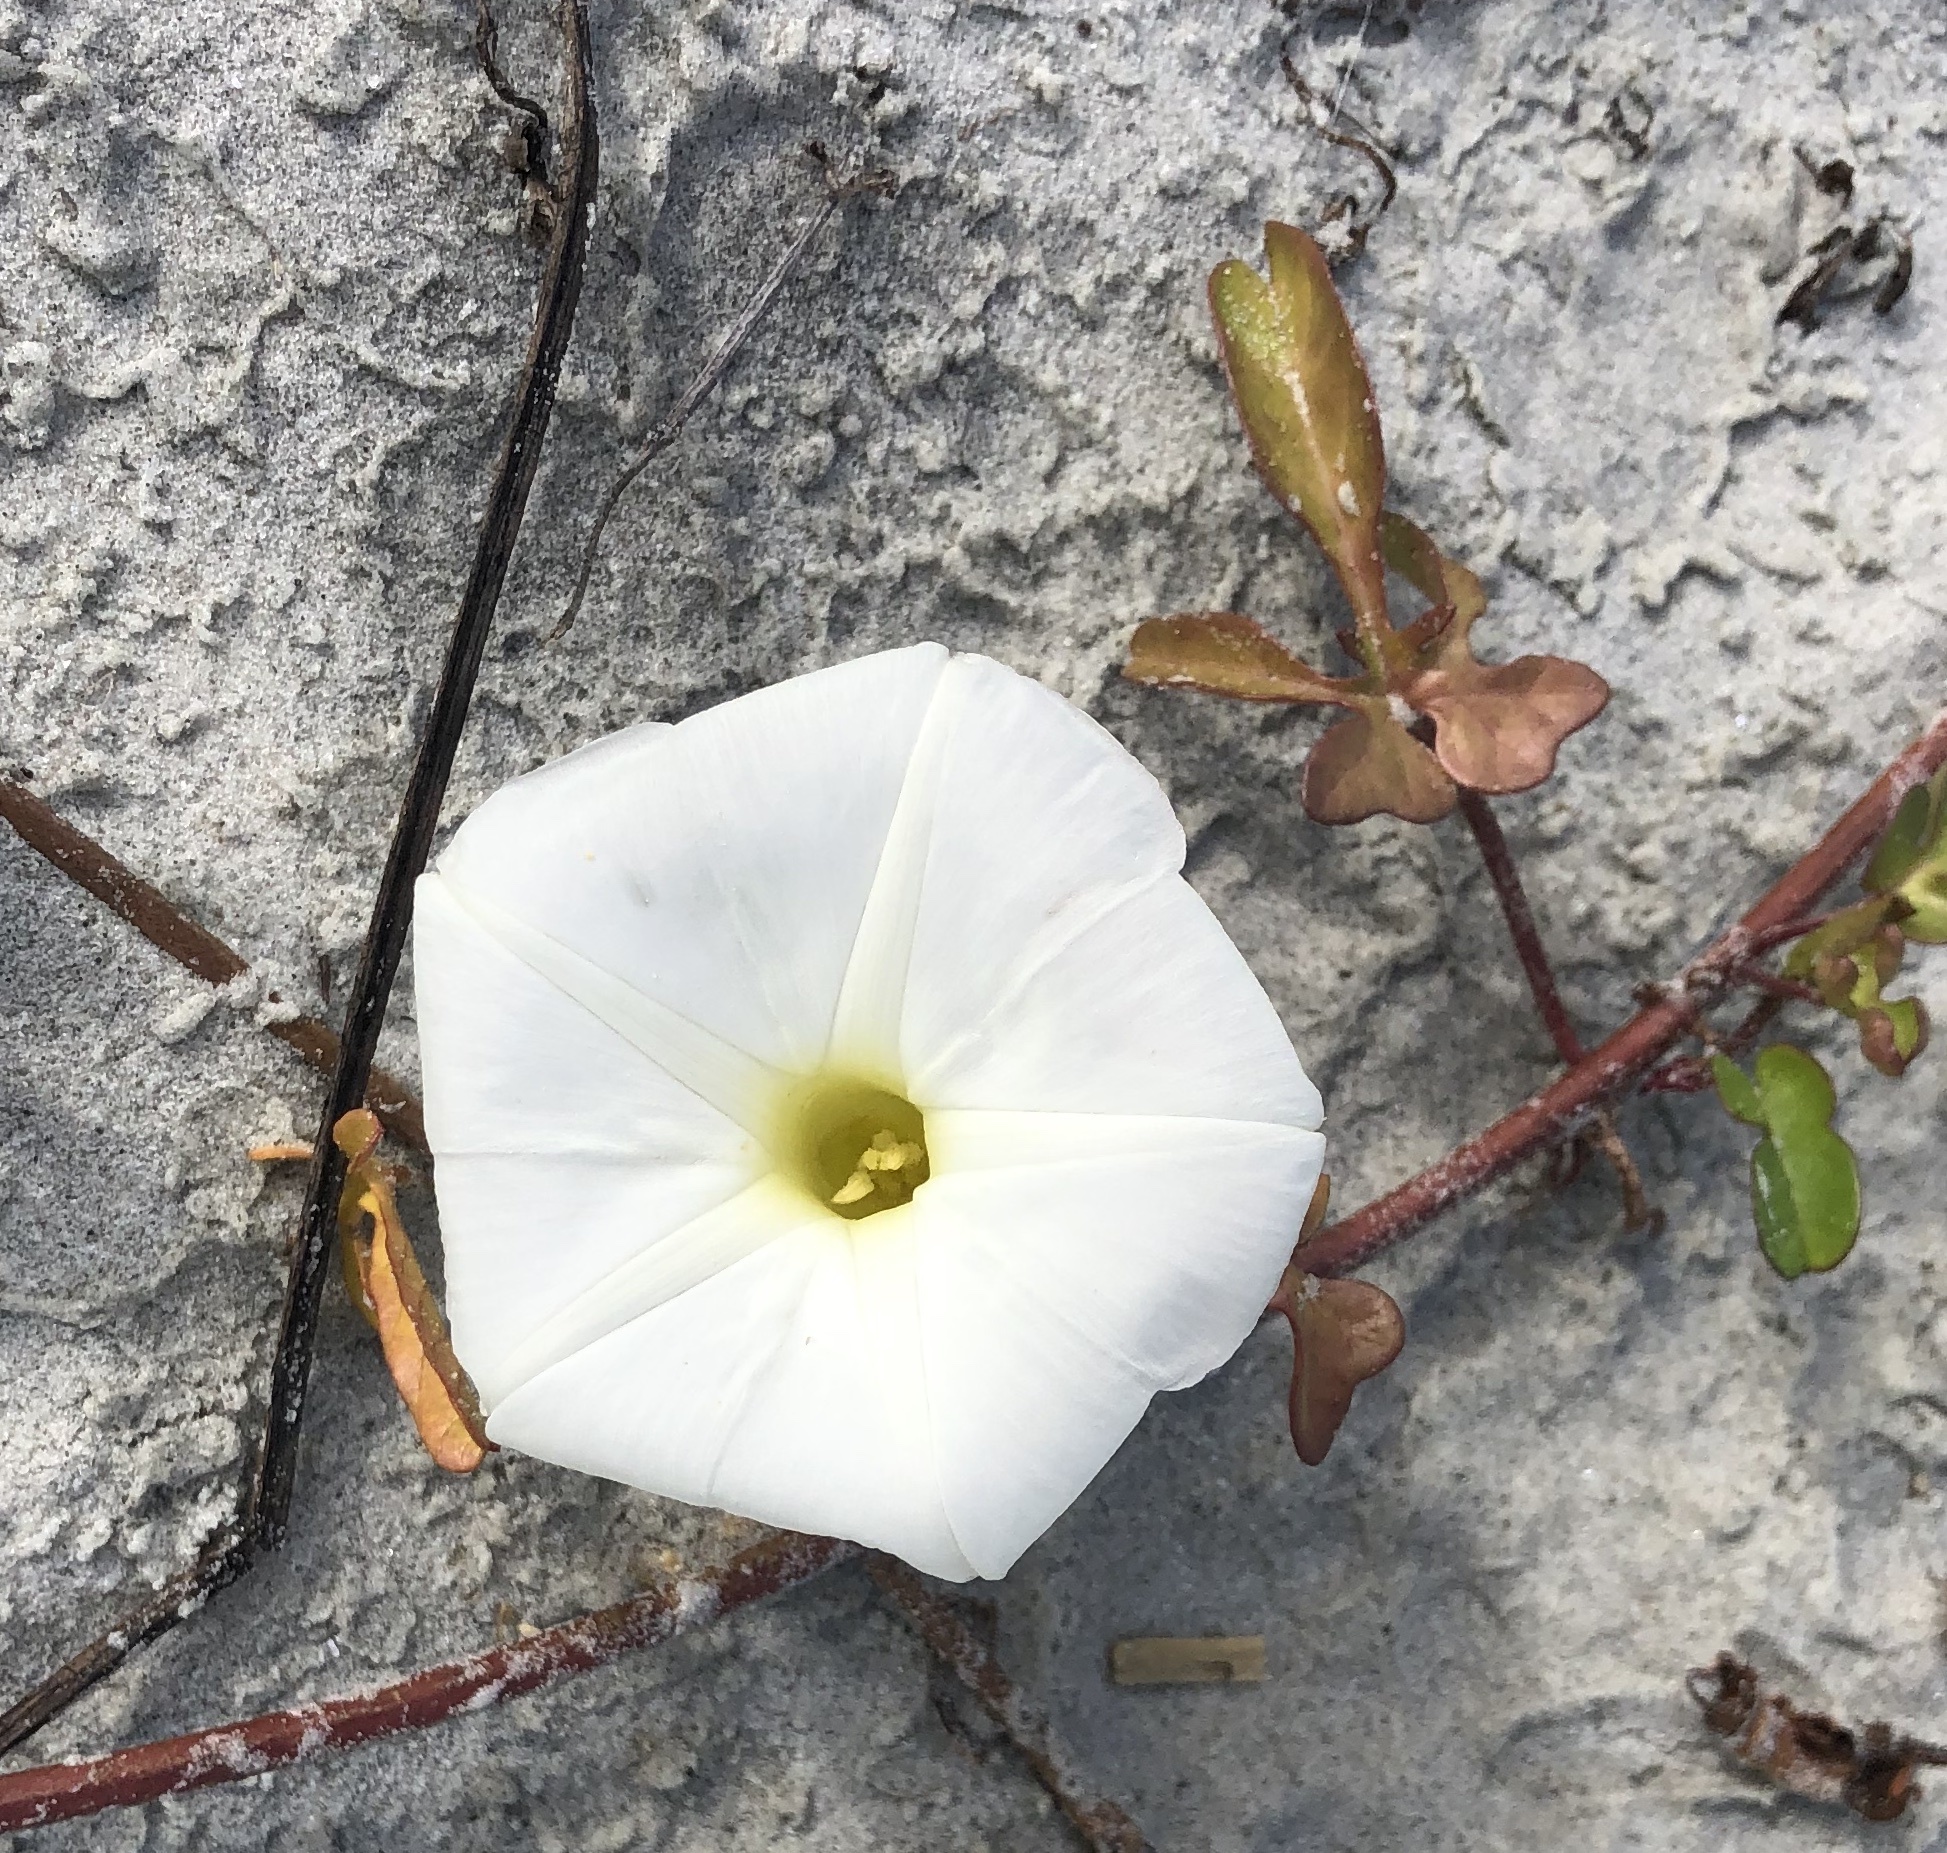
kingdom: Plantae
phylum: Tracheophyta
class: Magnoliopsida
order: Solanales
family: Convolvulaceae
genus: Ipomoea
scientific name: Ipomoea imperati
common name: Fiddle-leaf morning-glory
